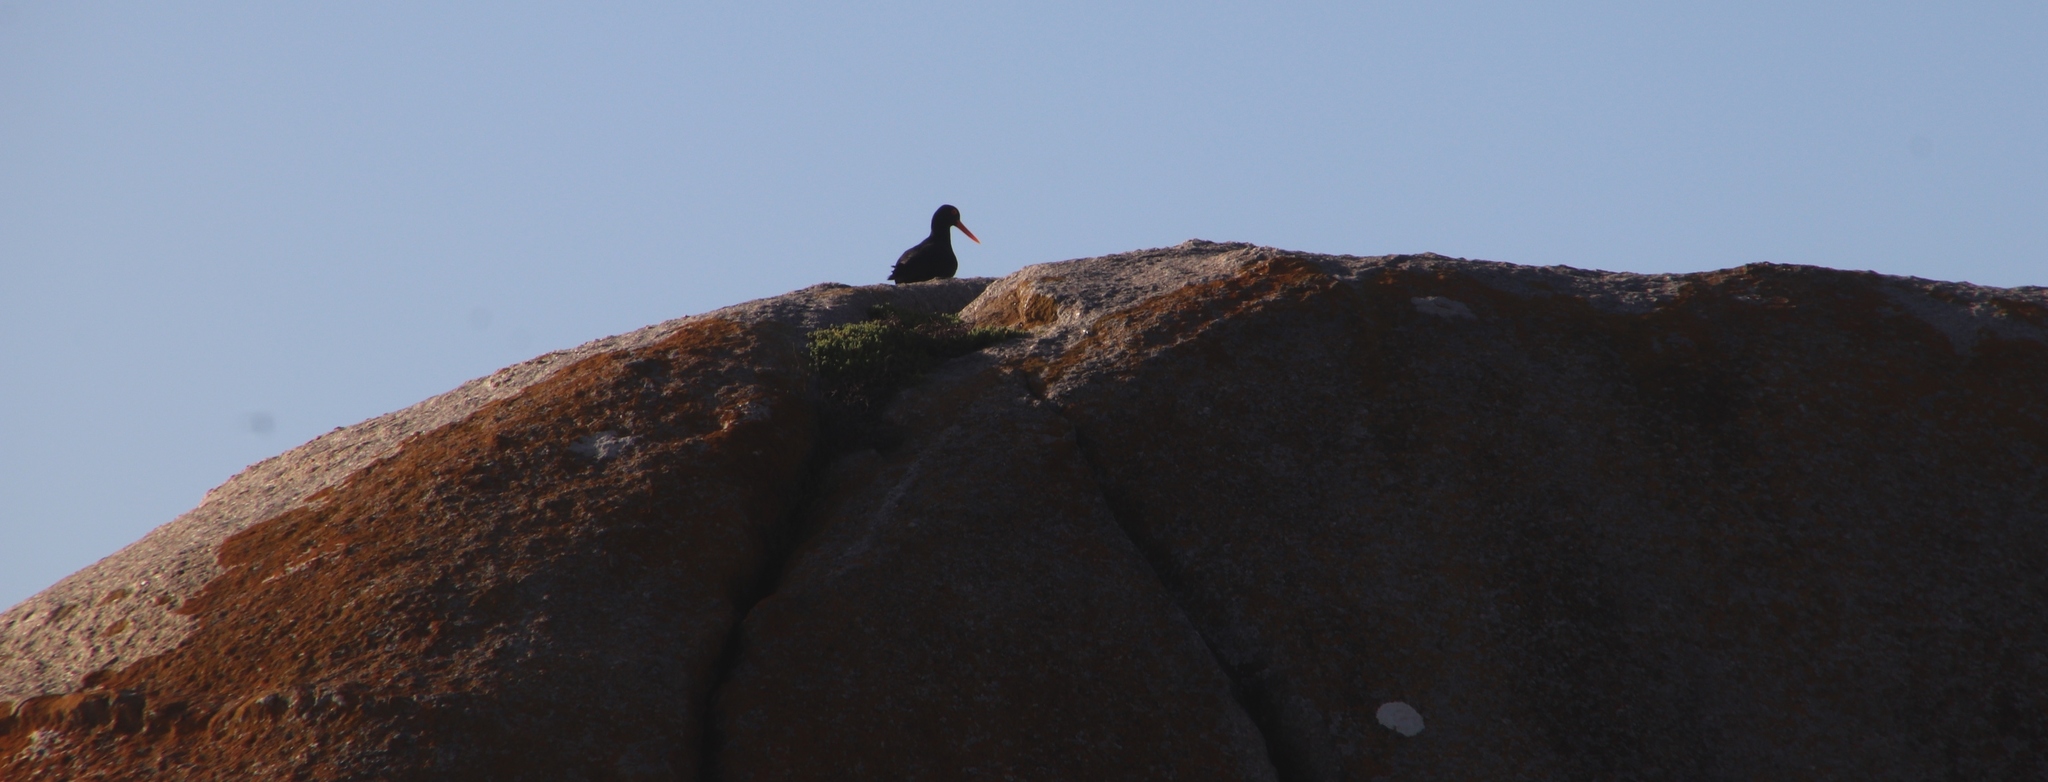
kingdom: Animalia
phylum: Chordata
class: Aves
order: Charadriiformes
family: Haematopodidae
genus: Haematopus
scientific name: Haematopus moquini
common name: African oystercatcher
